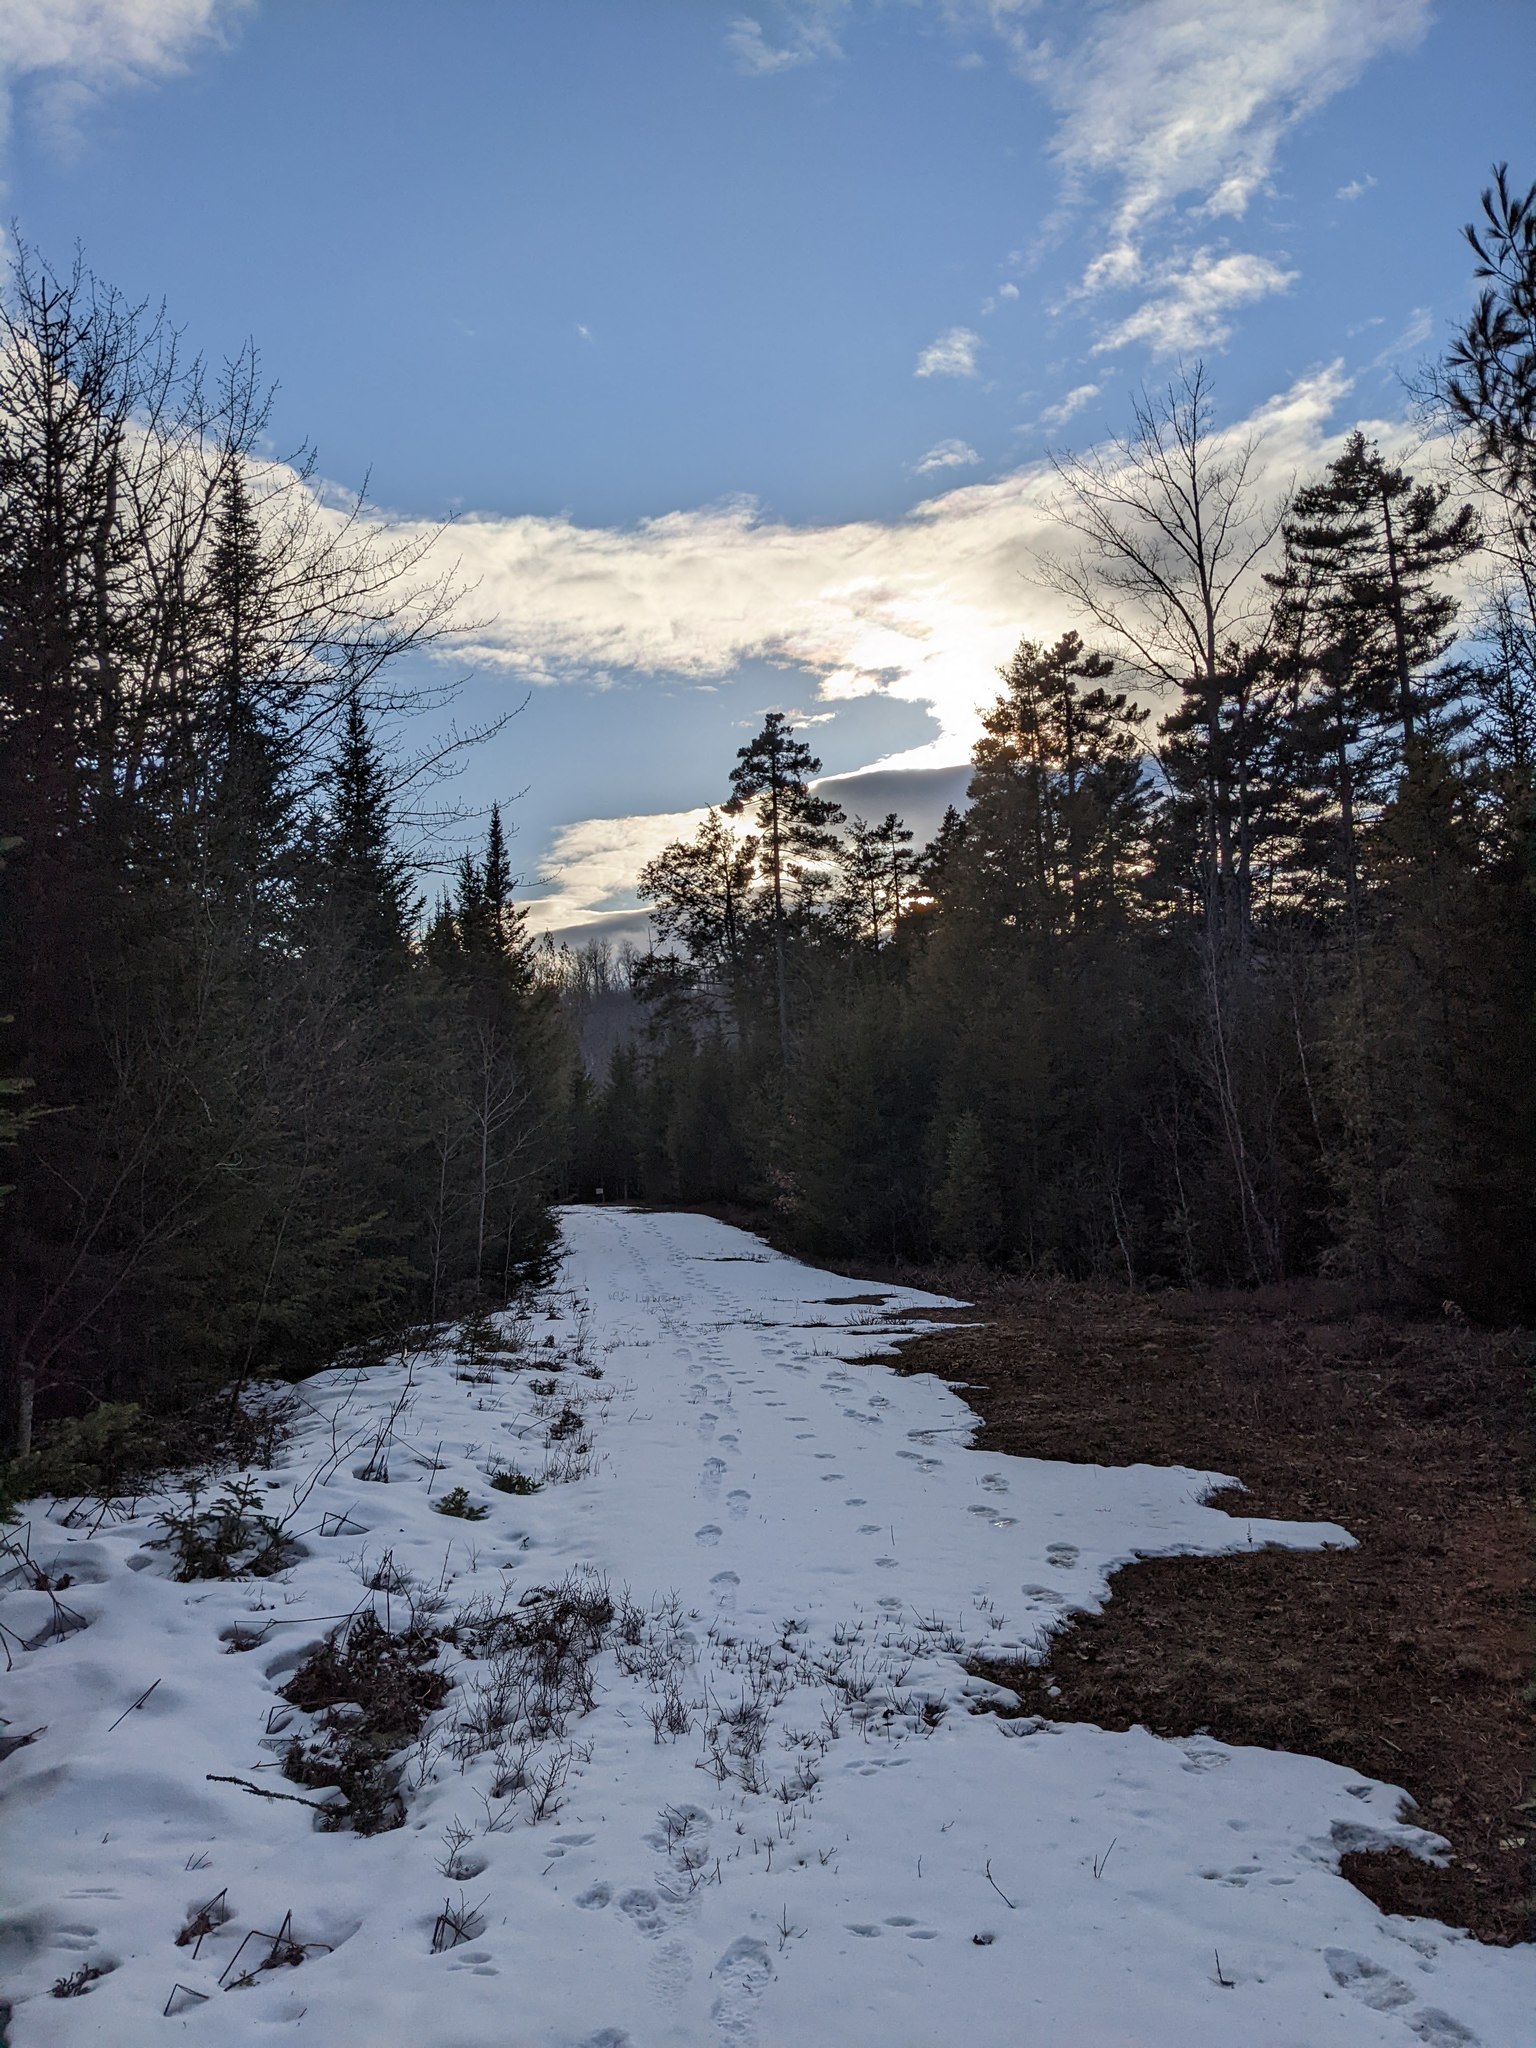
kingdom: Plantae
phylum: Tracheophyta
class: Pinopsida
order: Pinales
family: Pinaceae
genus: Pinus
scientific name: Pinus strobus
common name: Weymouth pine
